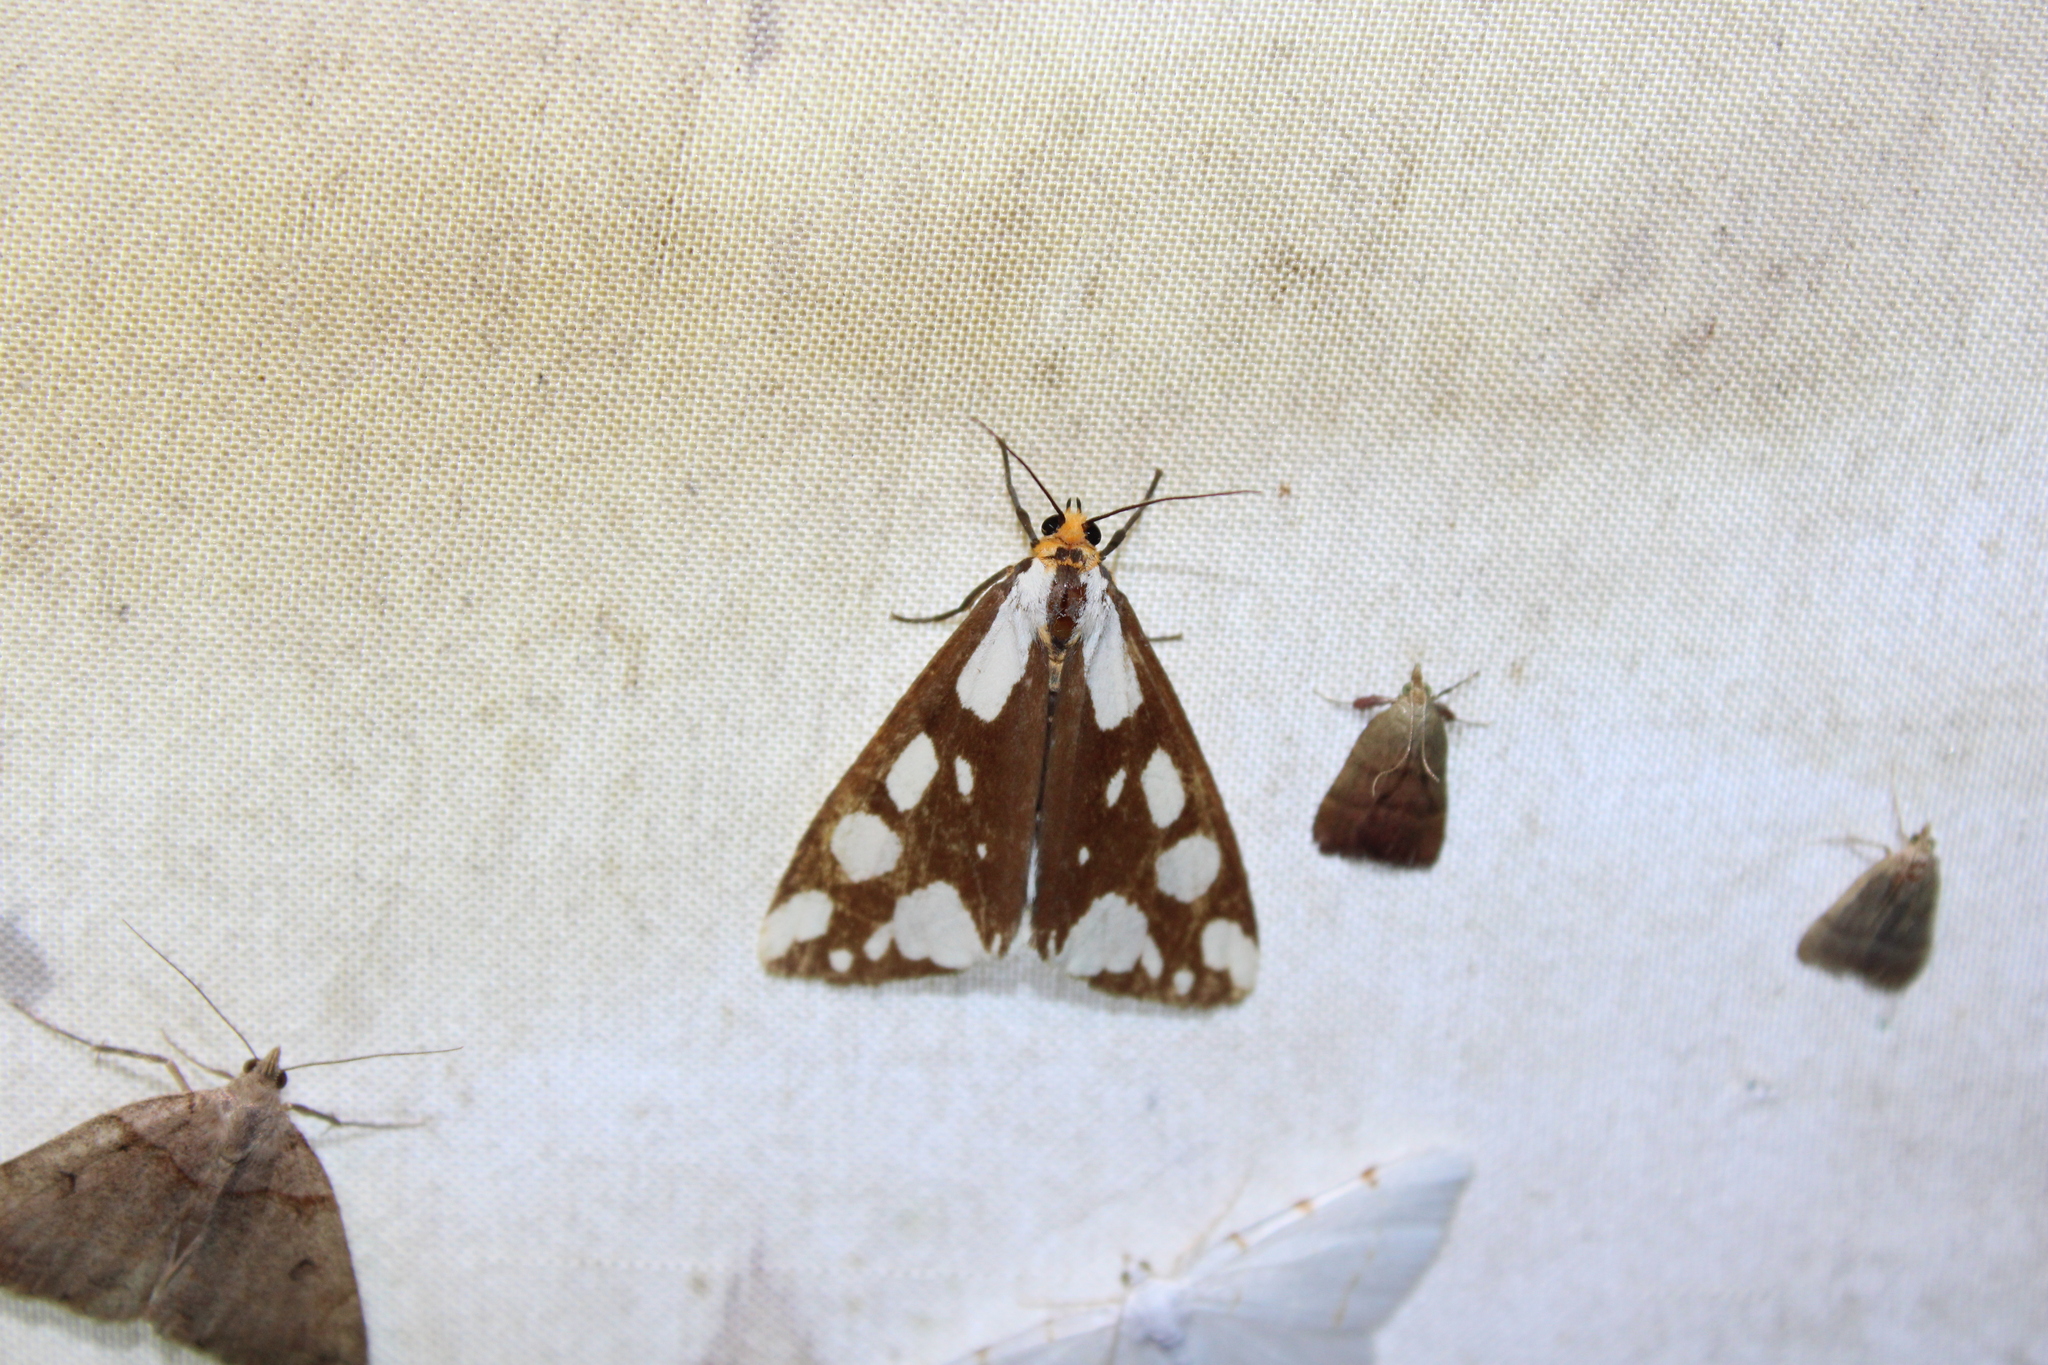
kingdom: Animalia
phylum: Arthropoda
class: Insecta
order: Lepidoptera
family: Erebidae
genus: Haploa
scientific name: Haploa confusa
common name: Confused haploa moth
